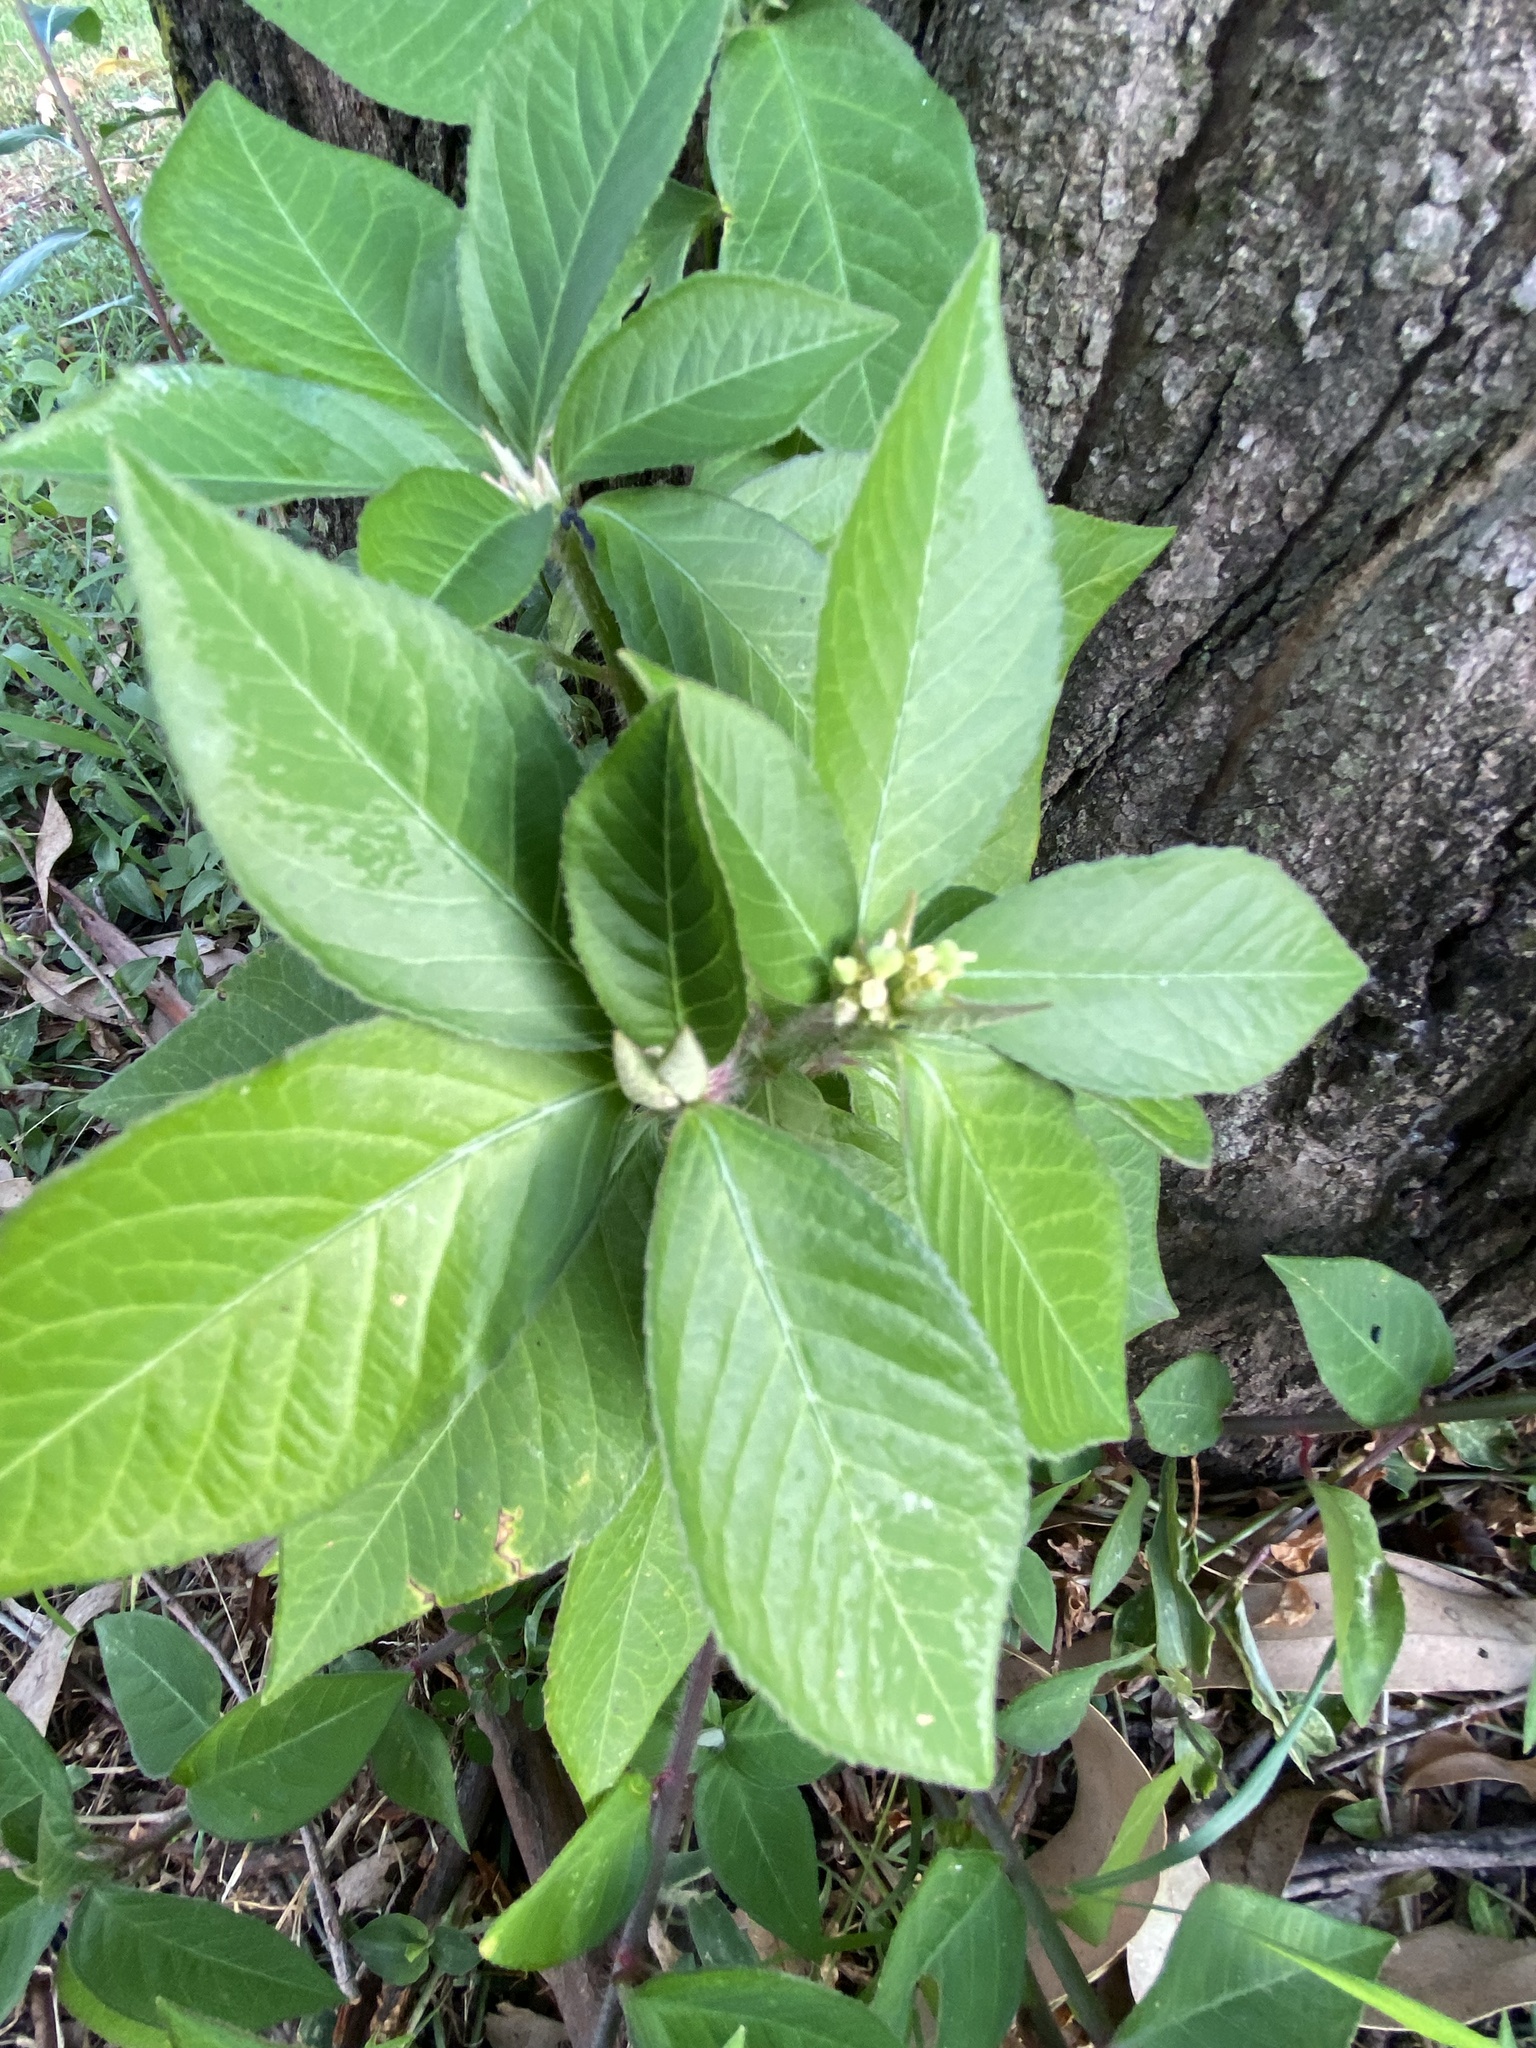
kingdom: Plantae
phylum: Tracheophyta
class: Magnoliopsida
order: Malpighiales
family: Euphorbiaceae
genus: Euphorbia
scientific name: Euphorbia heterophylla
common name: Mexican fireplant
